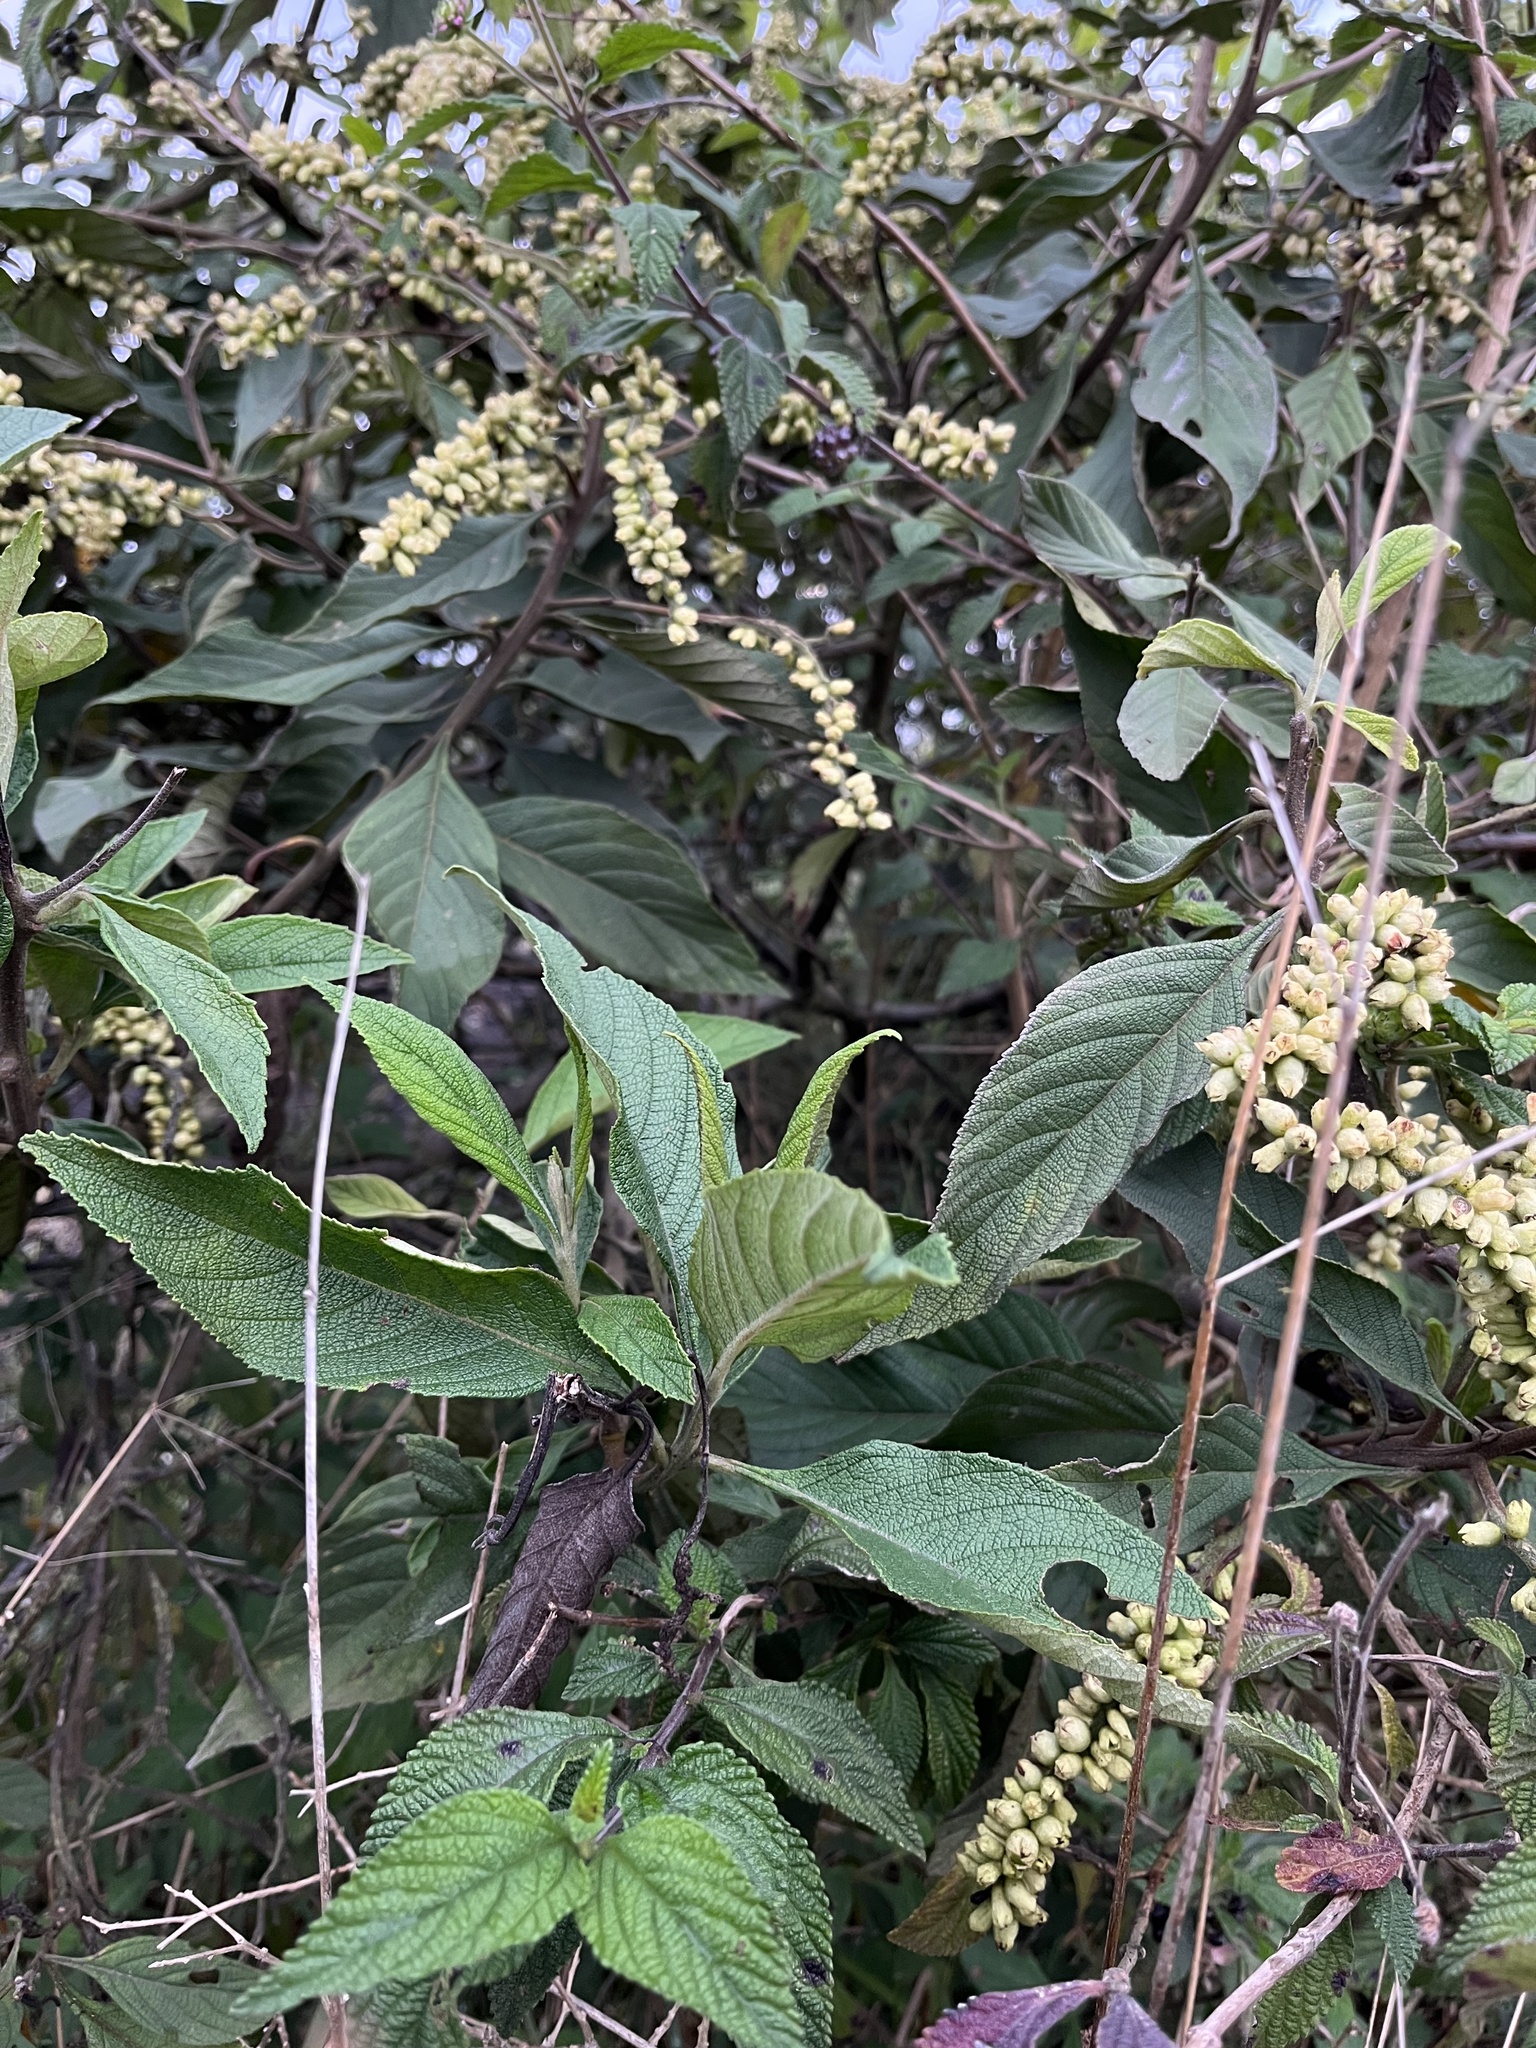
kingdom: Plantae
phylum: Tracheophyta
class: Magnoliopsida
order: Boraginales
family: Cordiaceae
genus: Varronia
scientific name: Varronia cylindrostachya
